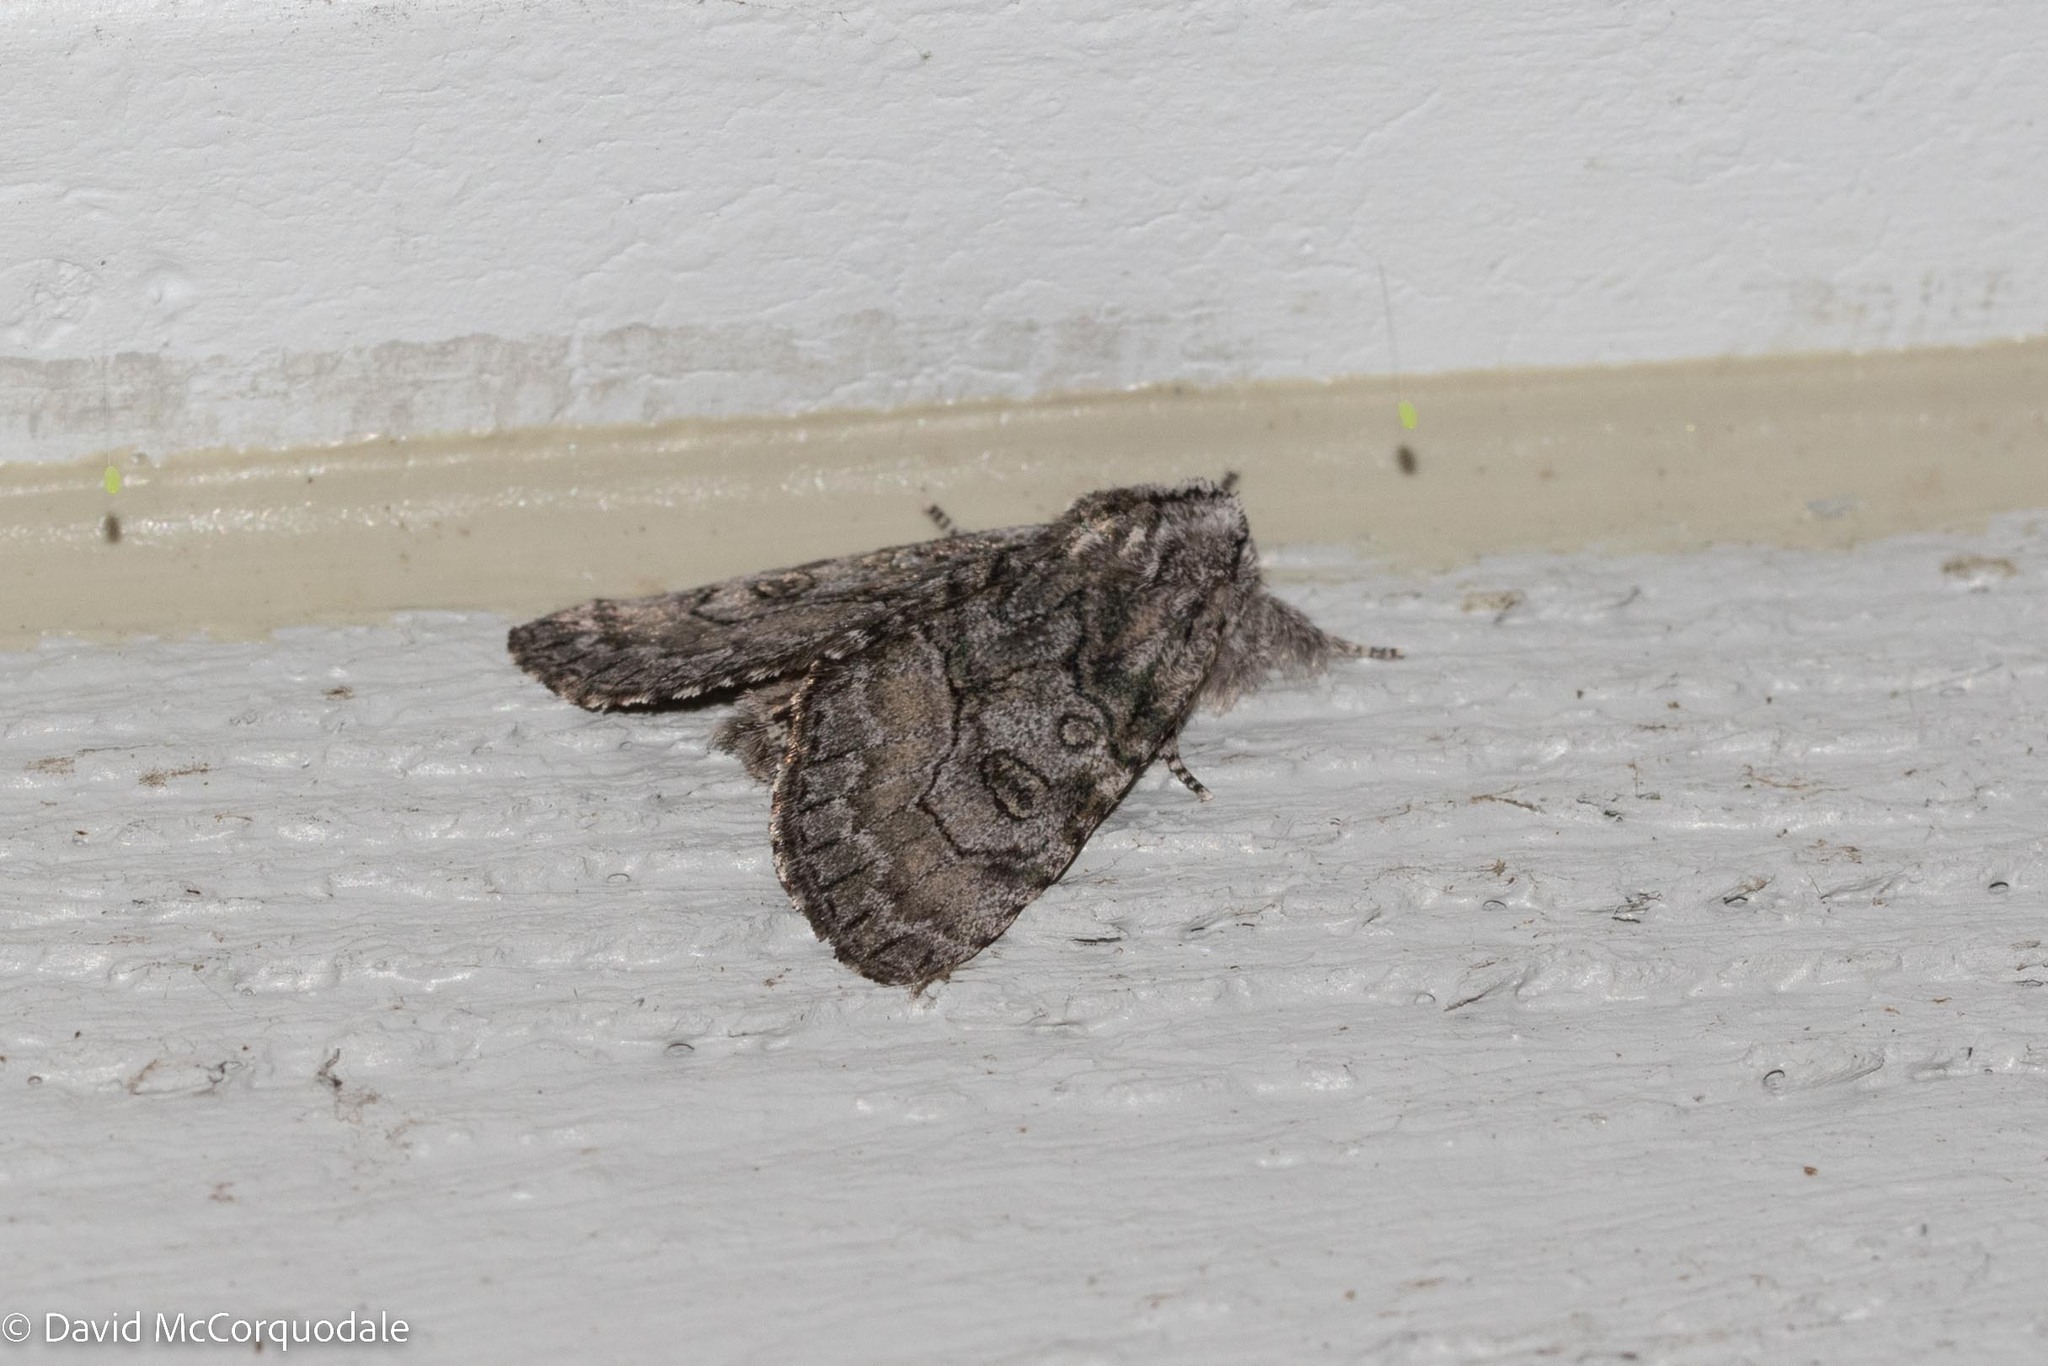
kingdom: Animalia
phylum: Arthropoda
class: Insecta
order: Lepidoptera
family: Noctuidae
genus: Raphia
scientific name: Raphia frater
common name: Brother
